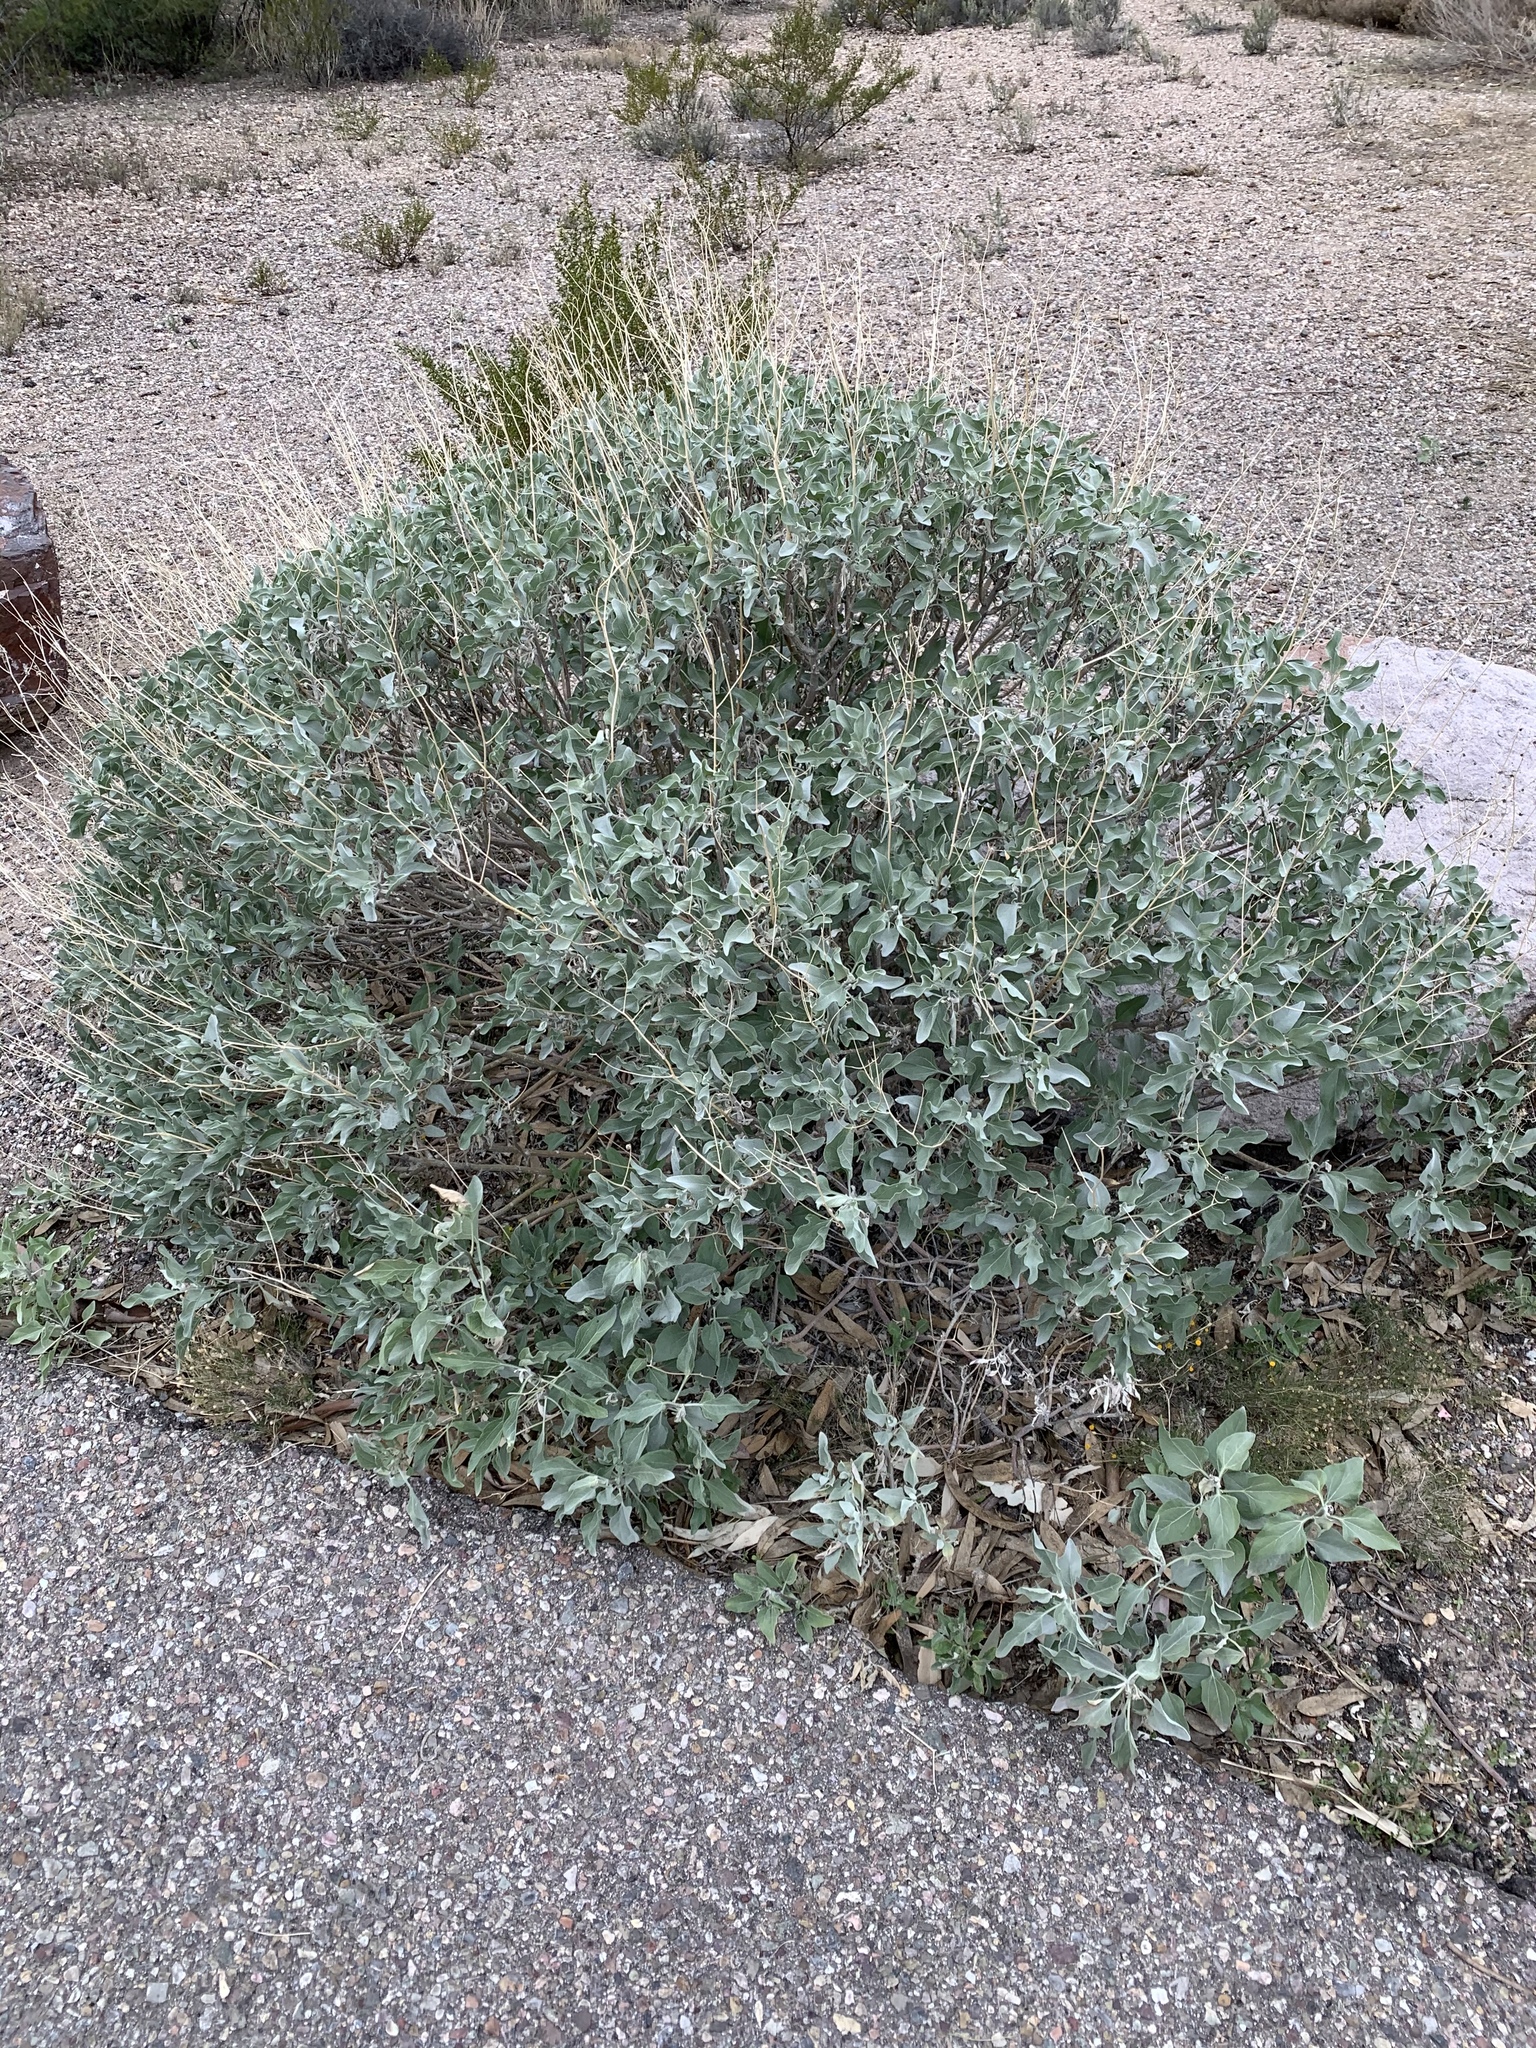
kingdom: Plantae
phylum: Tracheophyta
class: Magnoliopsida
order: Asterales
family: Asteraceae
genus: Encelia
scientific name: Encelia farinosa
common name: Brittlebush
